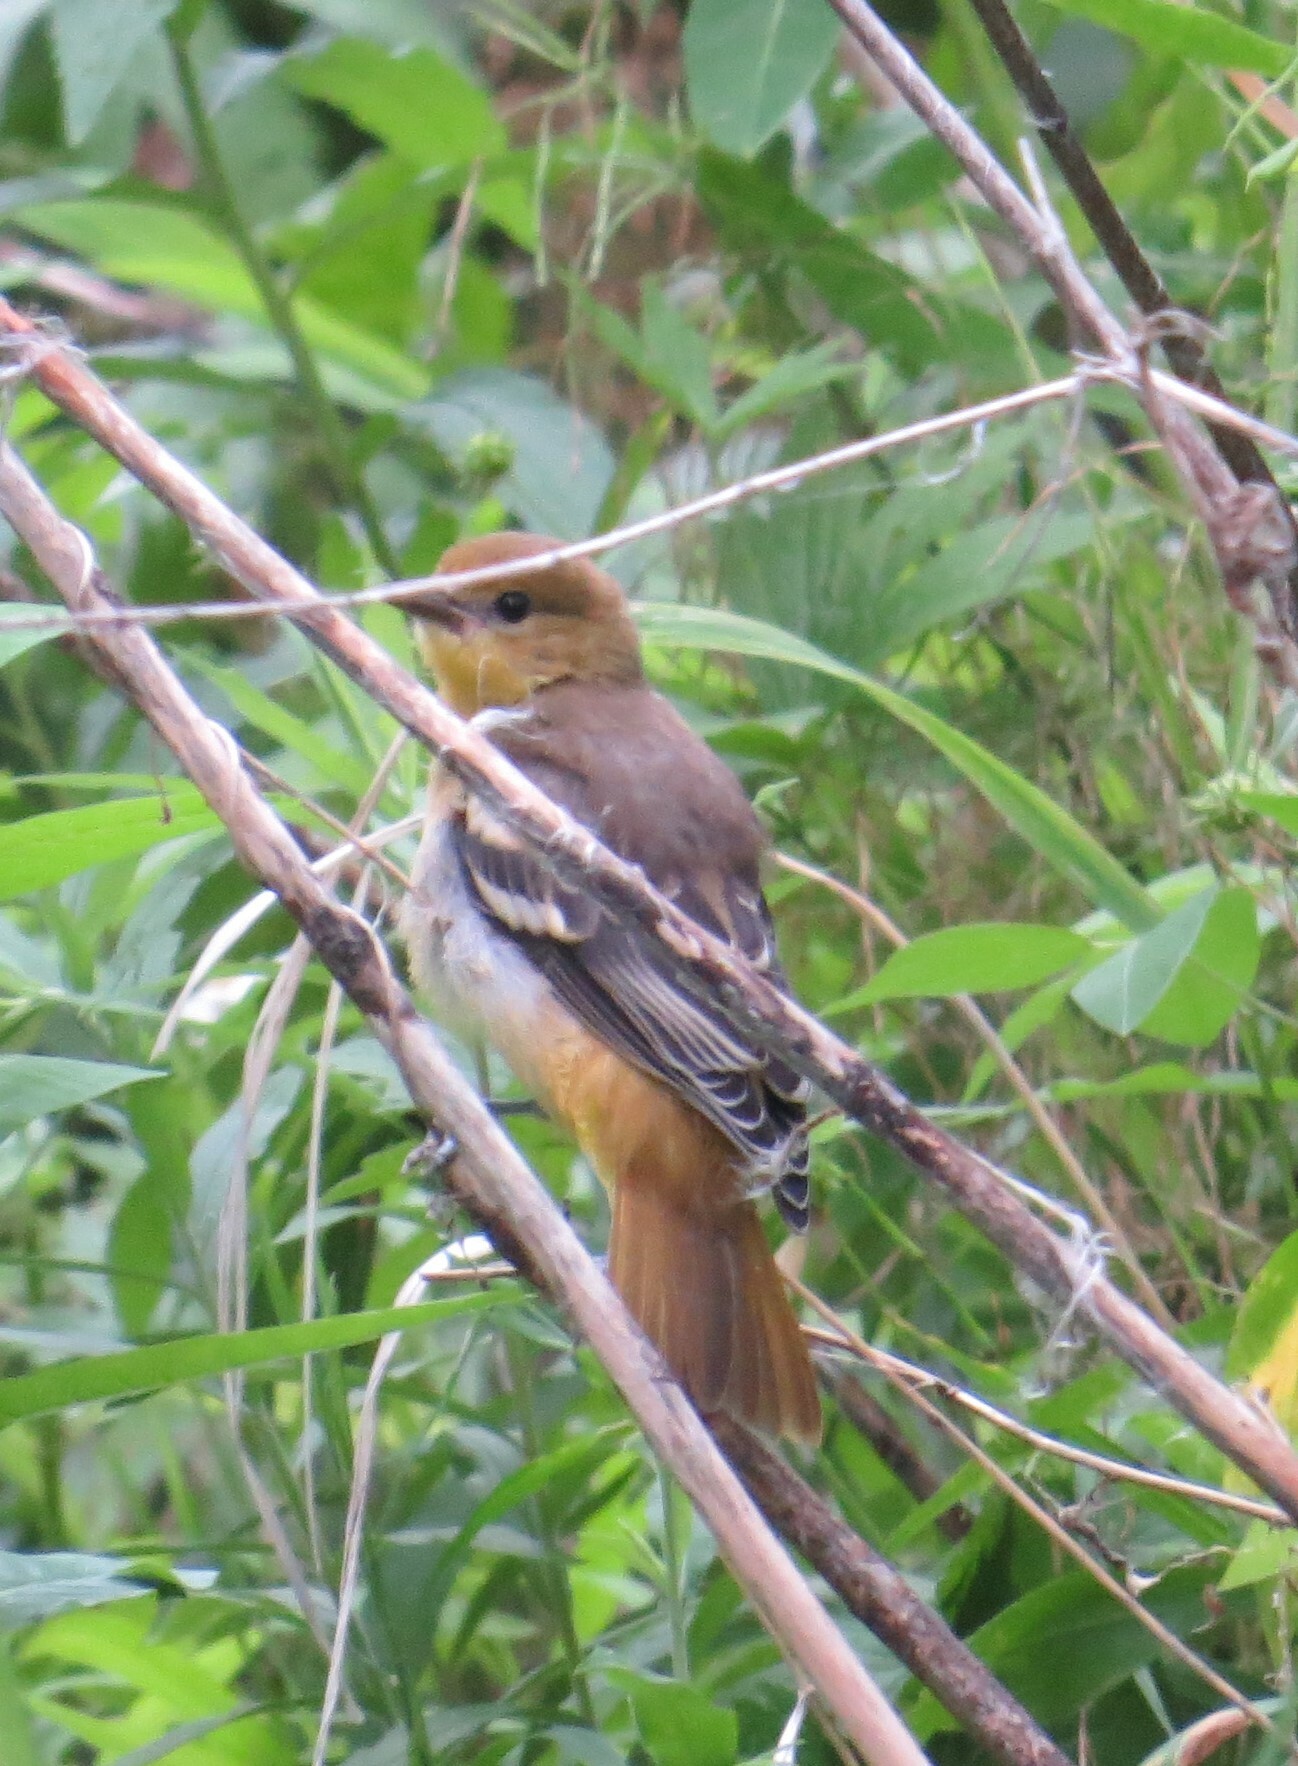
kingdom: Animalia
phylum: Chordata
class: Aves
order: Passeriformes
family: Icteridae
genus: Icterus
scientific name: Icterus galbula
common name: Baltimore oriole
